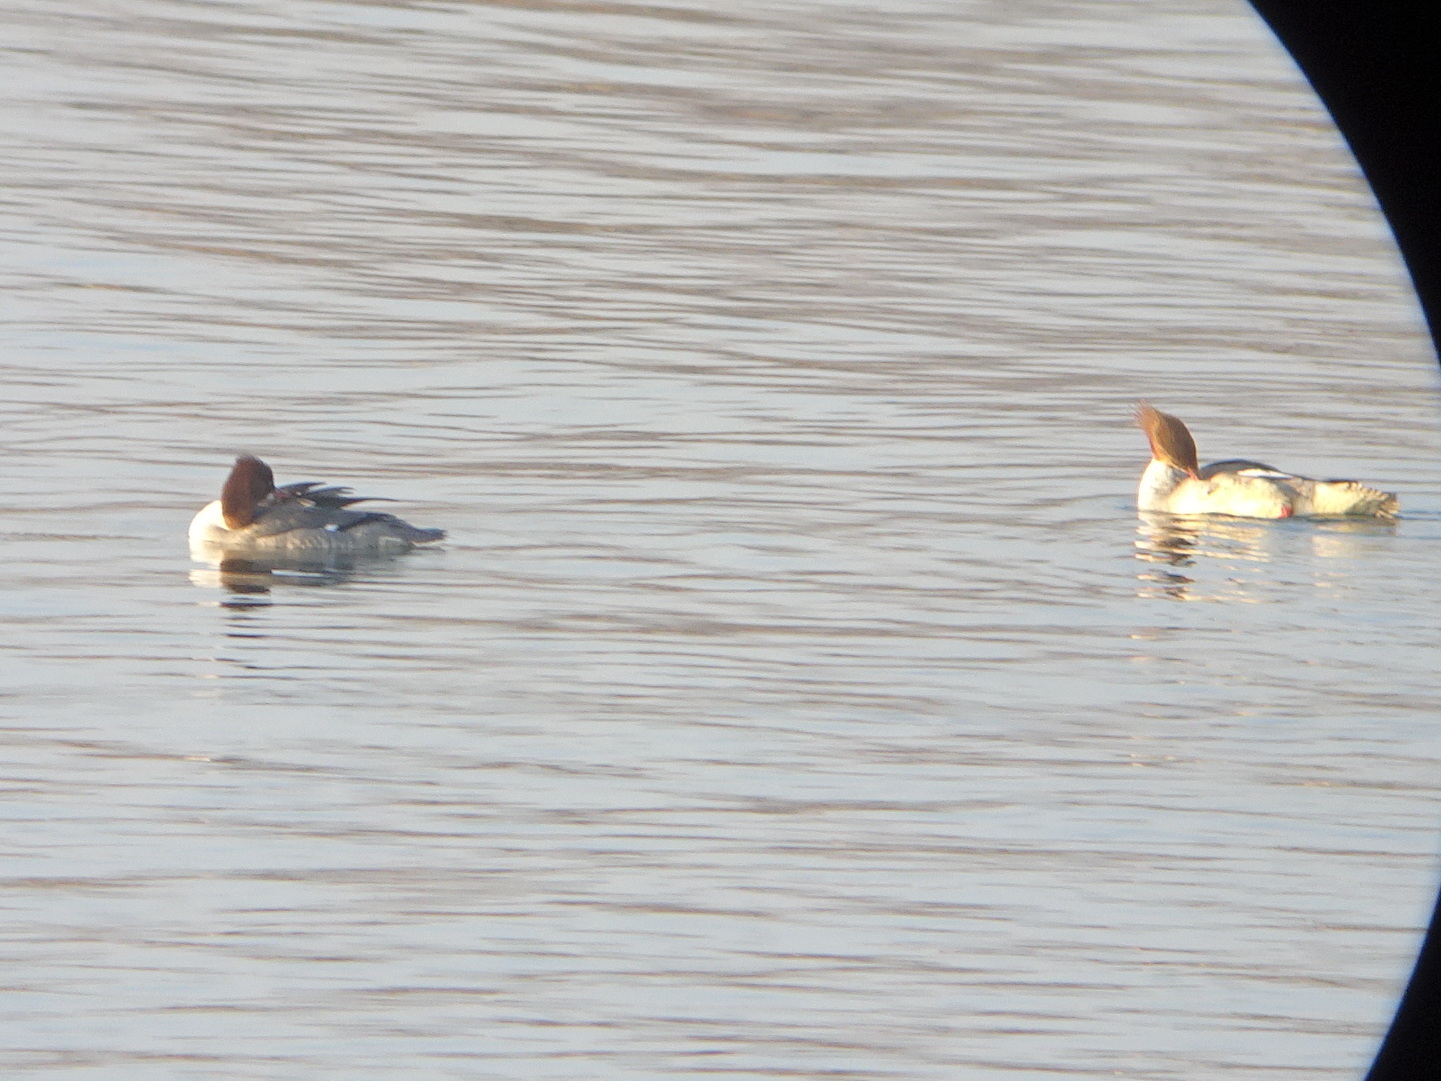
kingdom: Animalia
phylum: Chordata
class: Aves
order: Anseriformes
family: Anatidae
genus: Mergus
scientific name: Mergus merganser
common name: Common merganser
